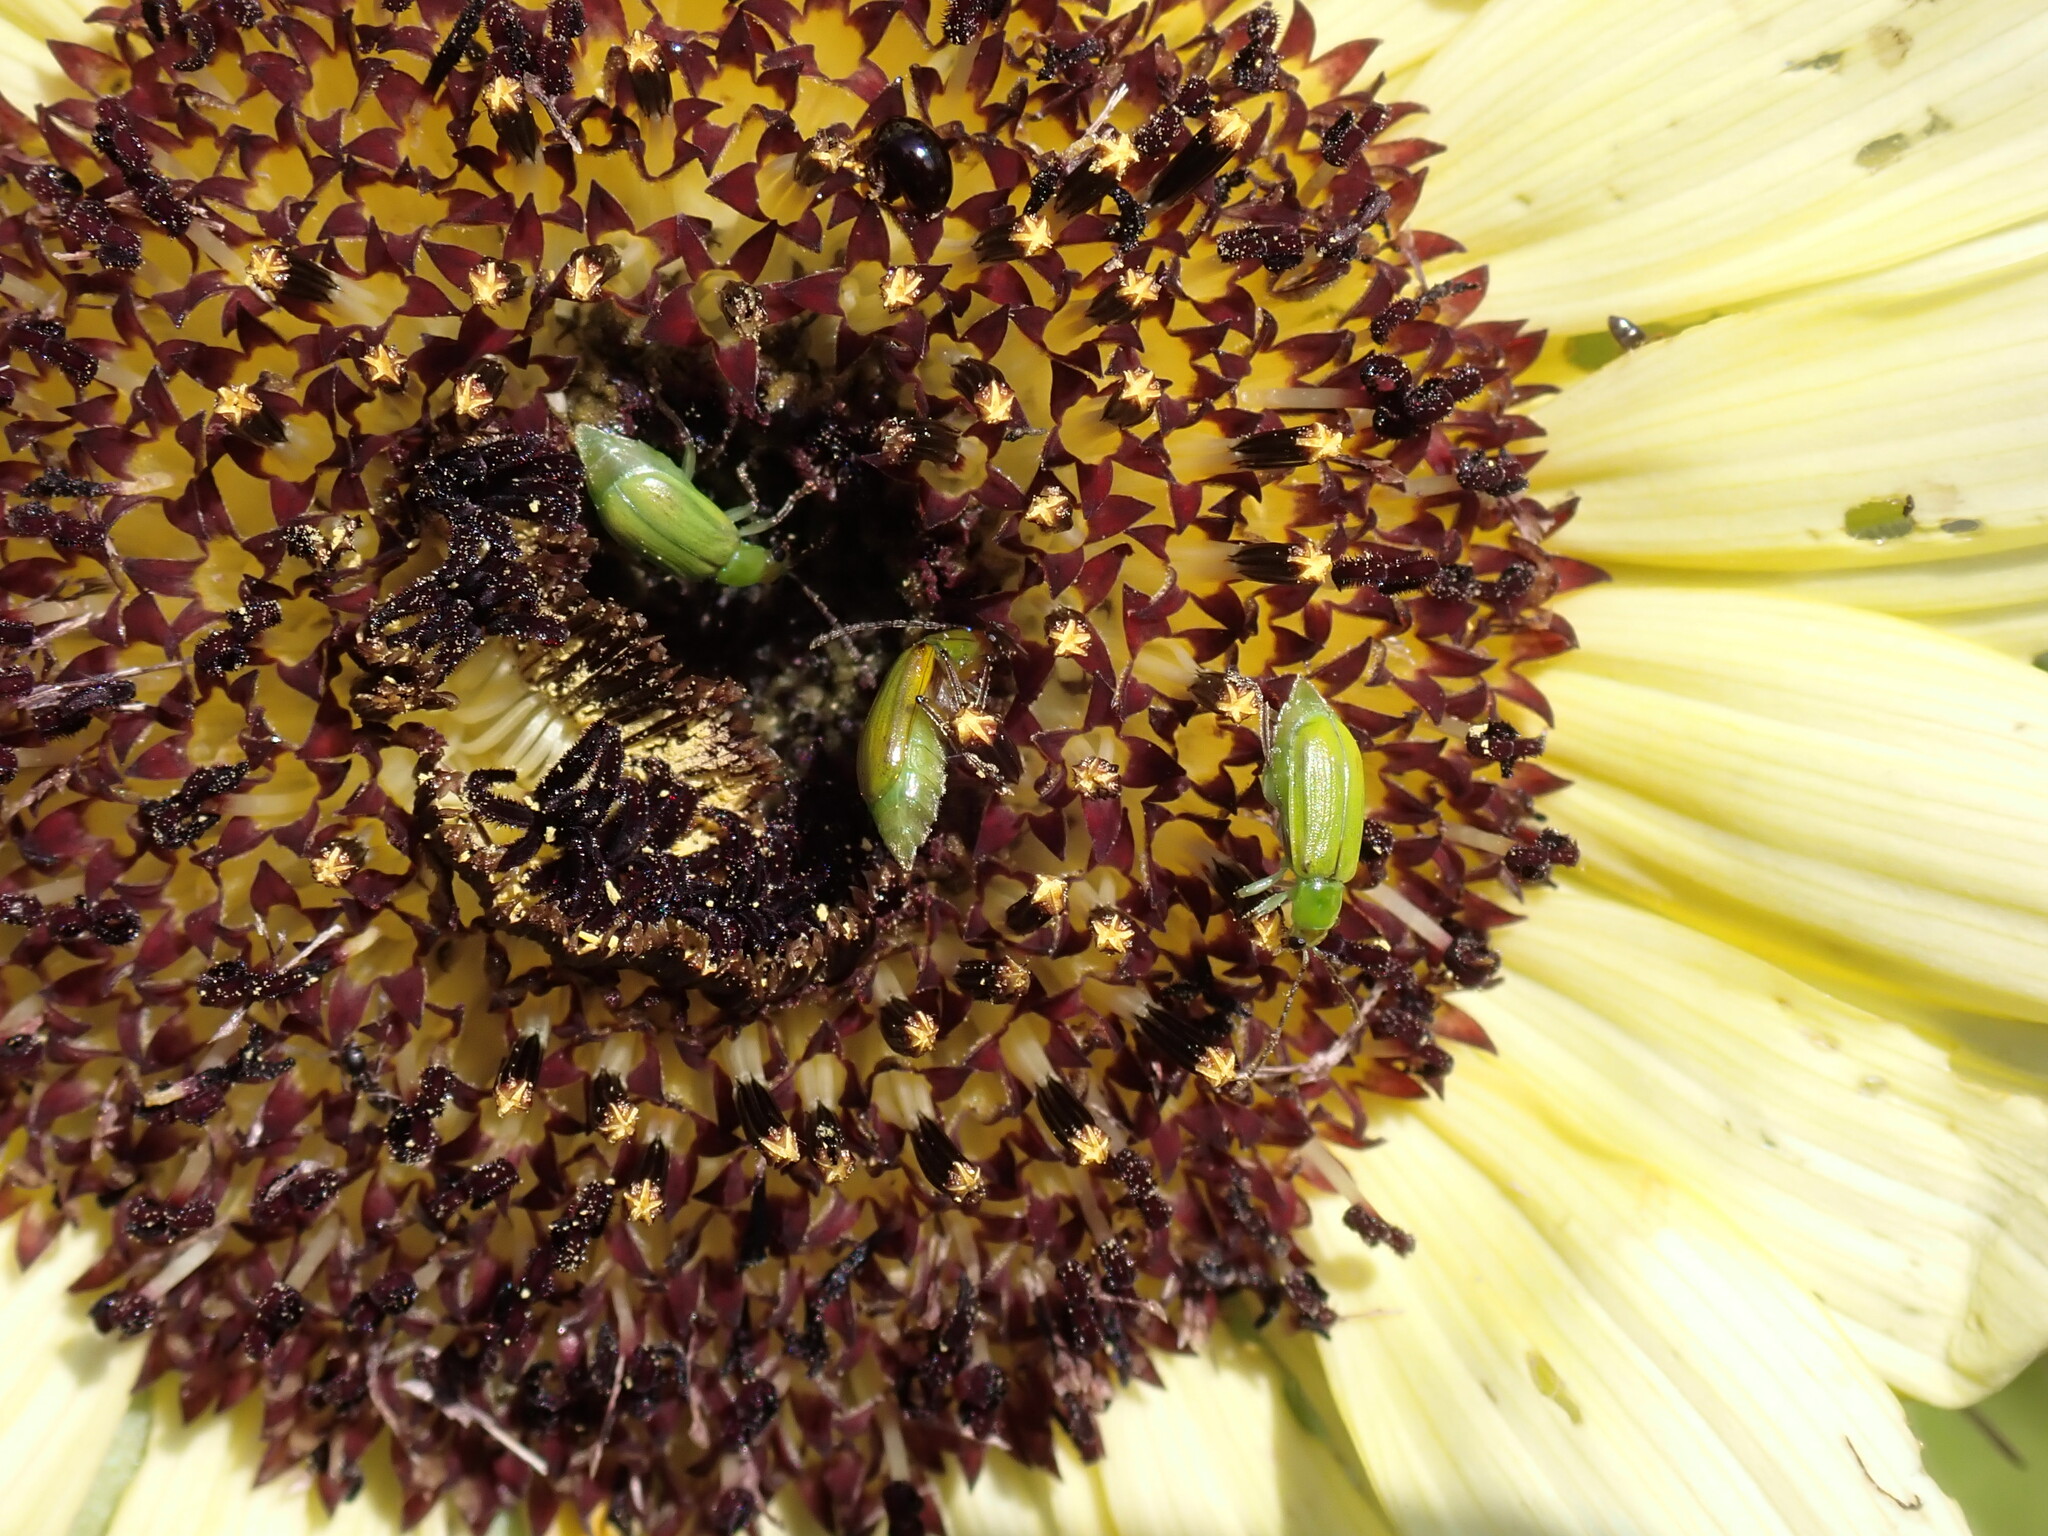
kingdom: Animalia
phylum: Arthropoda
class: Insecta
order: Coleoptera
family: Chrysomelidae
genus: Diabrotica
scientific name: Diabrotica barberi
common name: Northern corn rootworm
